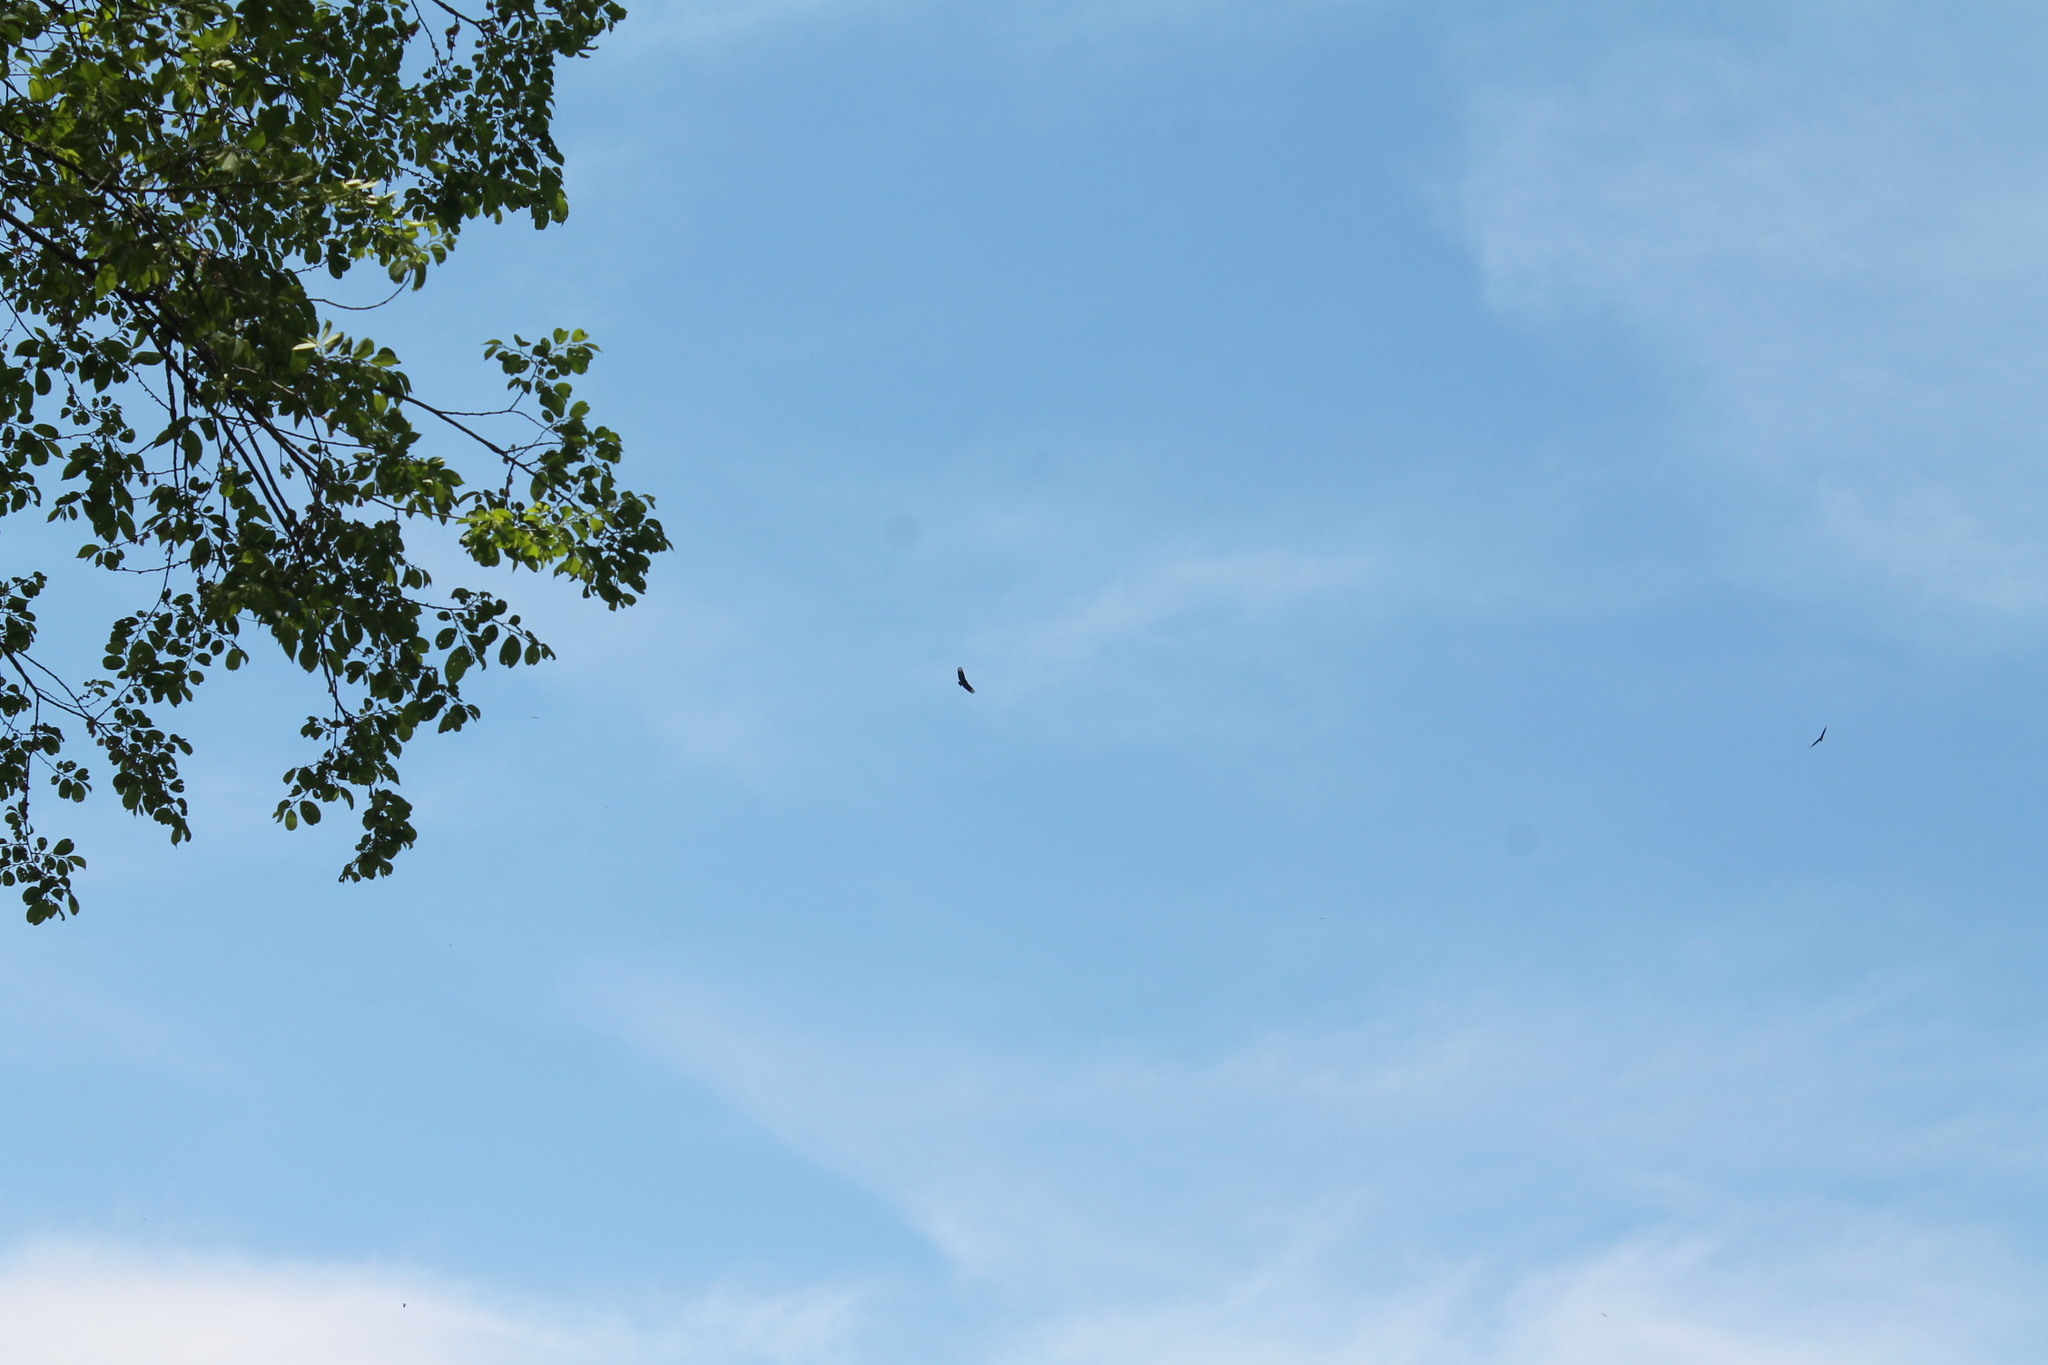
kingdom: Animalia
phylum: Chordata
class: Aves
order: Accipitriformes
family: Cathartidae
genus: Coragyps
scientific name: Coragyps atratus
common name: Black vulture
